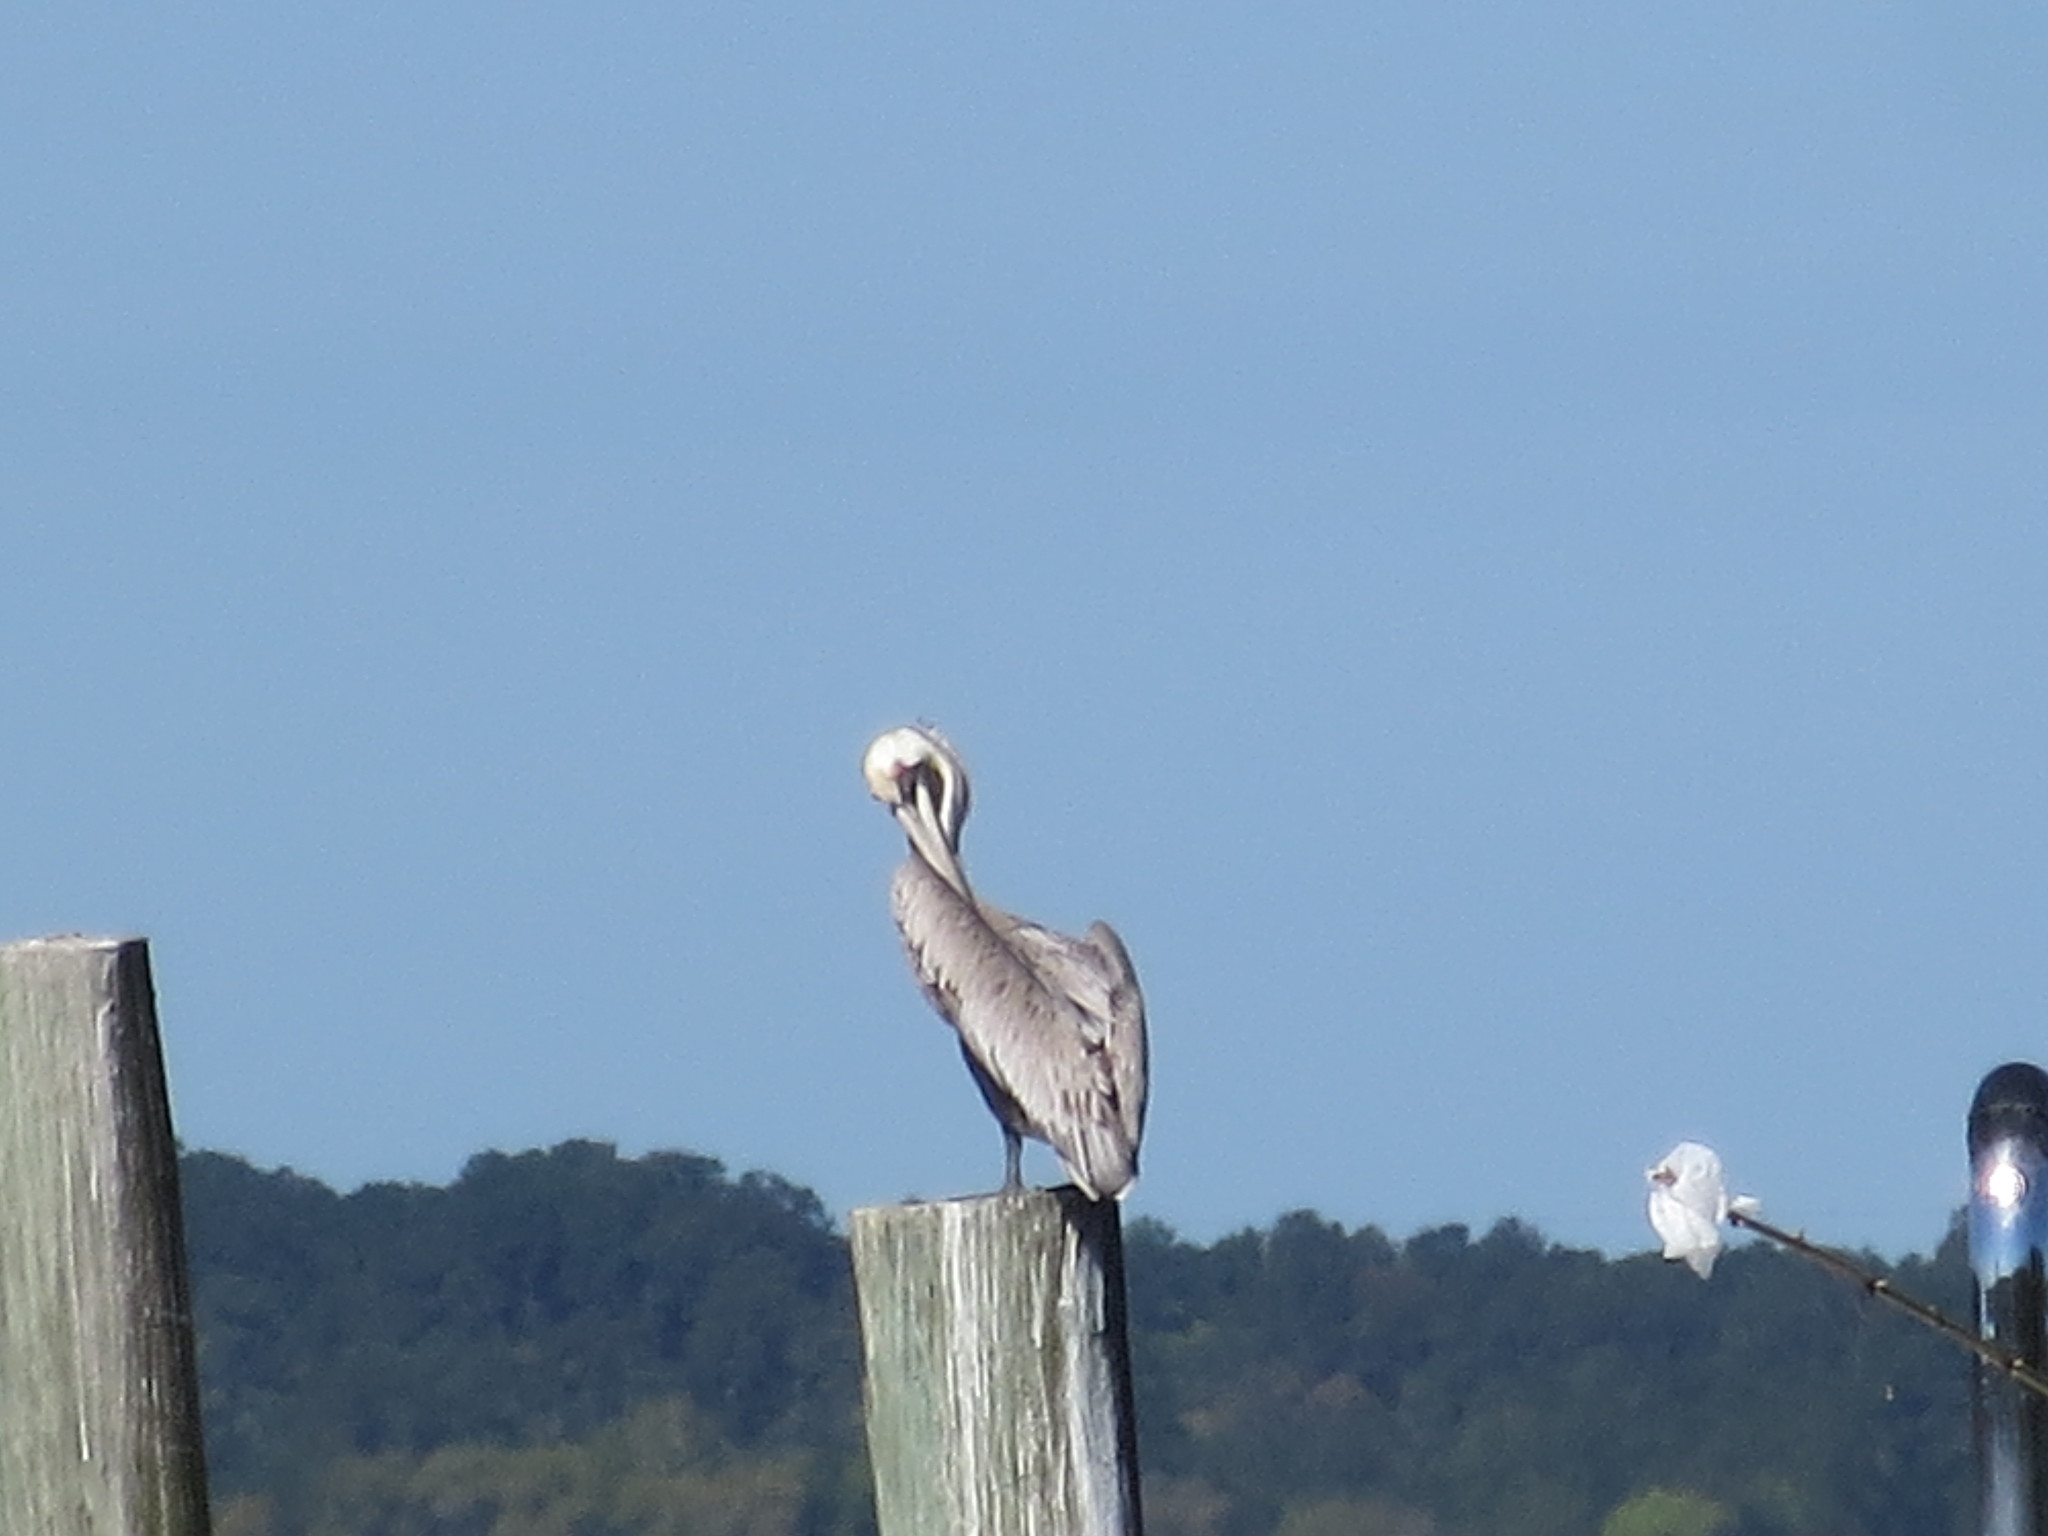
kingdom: Animalia
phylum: Chordata
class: Aves
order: Pelecaniformes
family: Pelecanidae
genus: Pelecanus
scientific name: Pelecanus occidentalis
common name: Brown pelican
